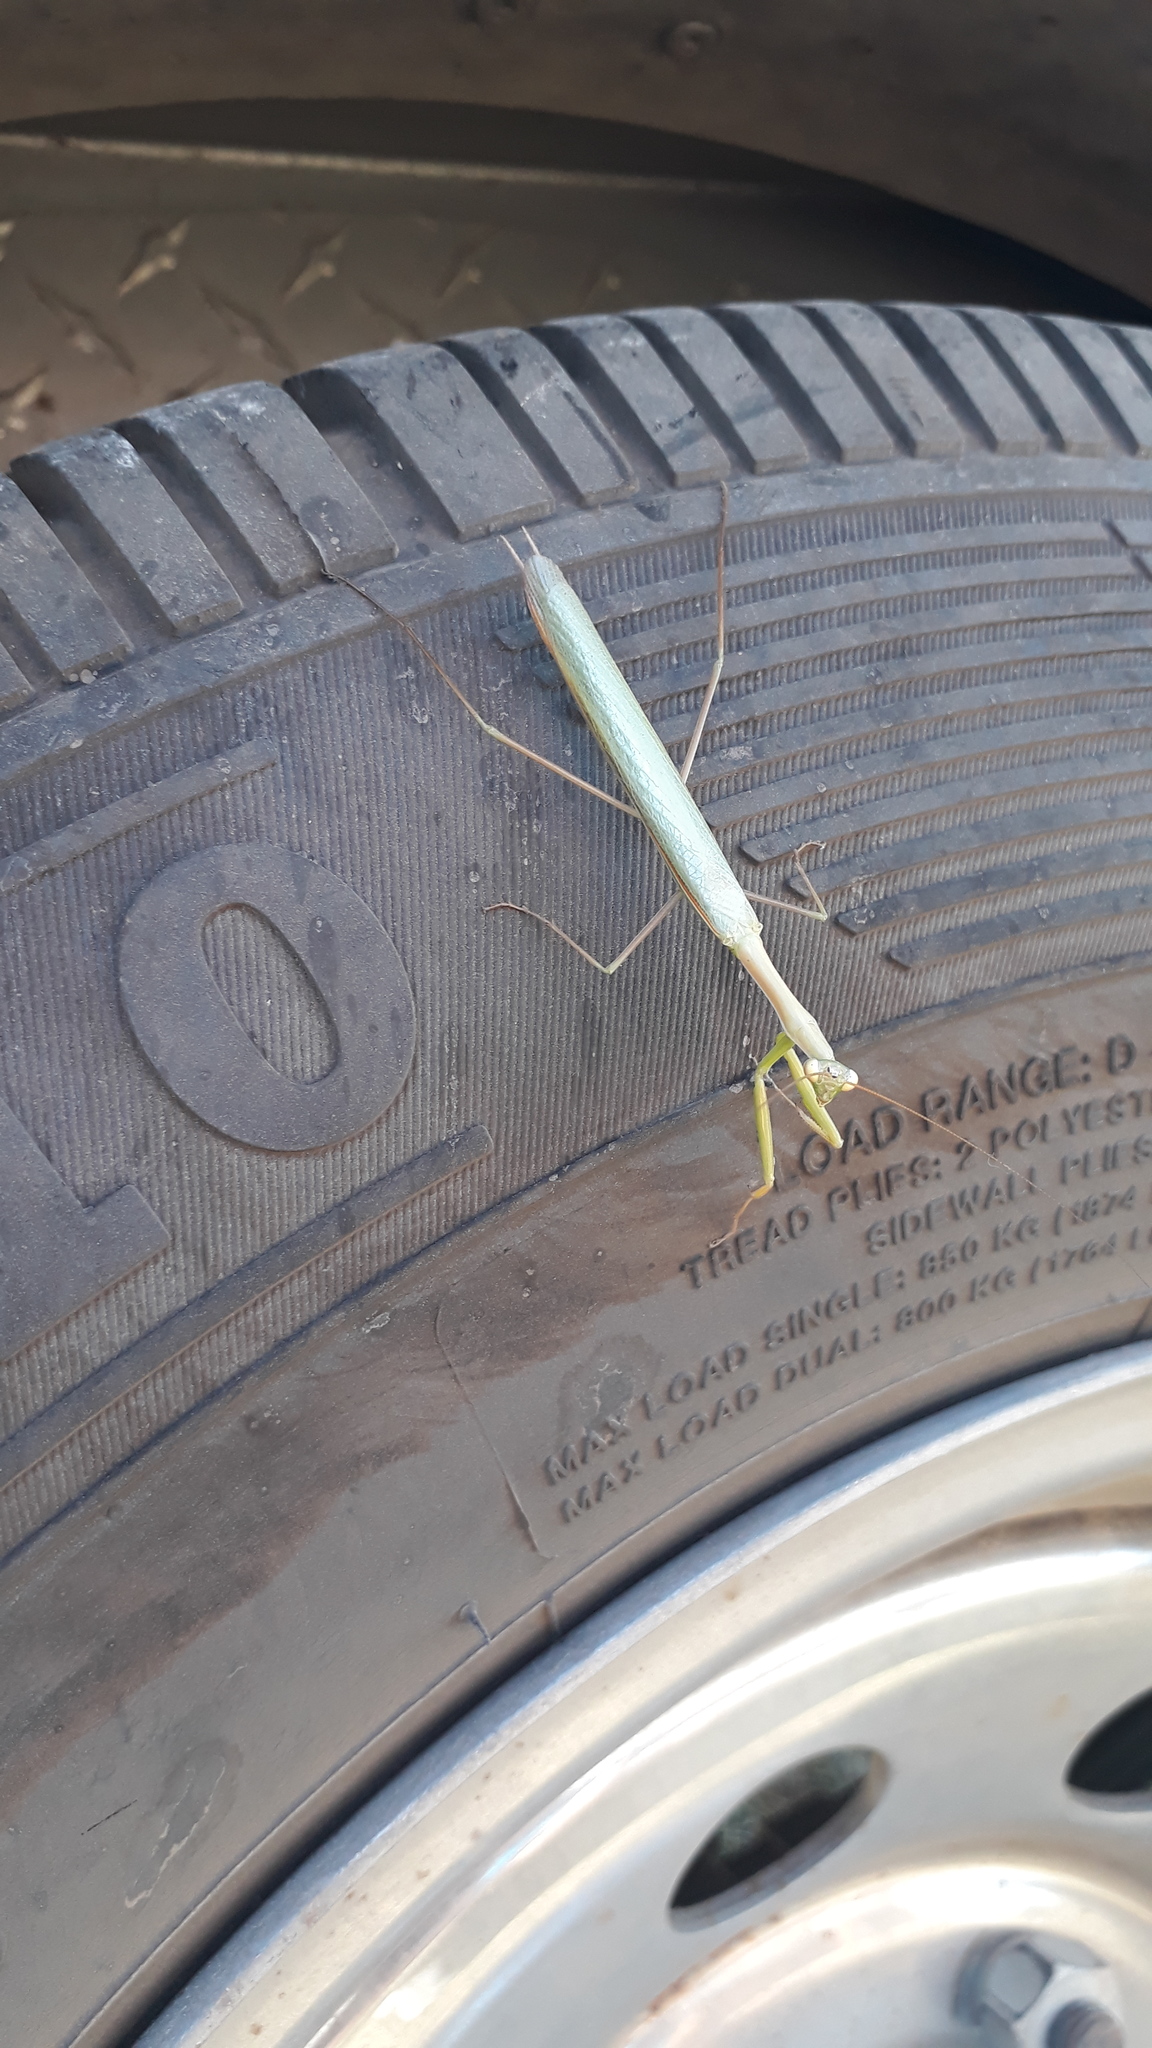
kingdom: Animalia
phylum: Arthropoda
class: Insecta
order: Mantodea
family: Coptopterygidae
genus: Coptopteryx
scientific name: Coptopteryx argentina
